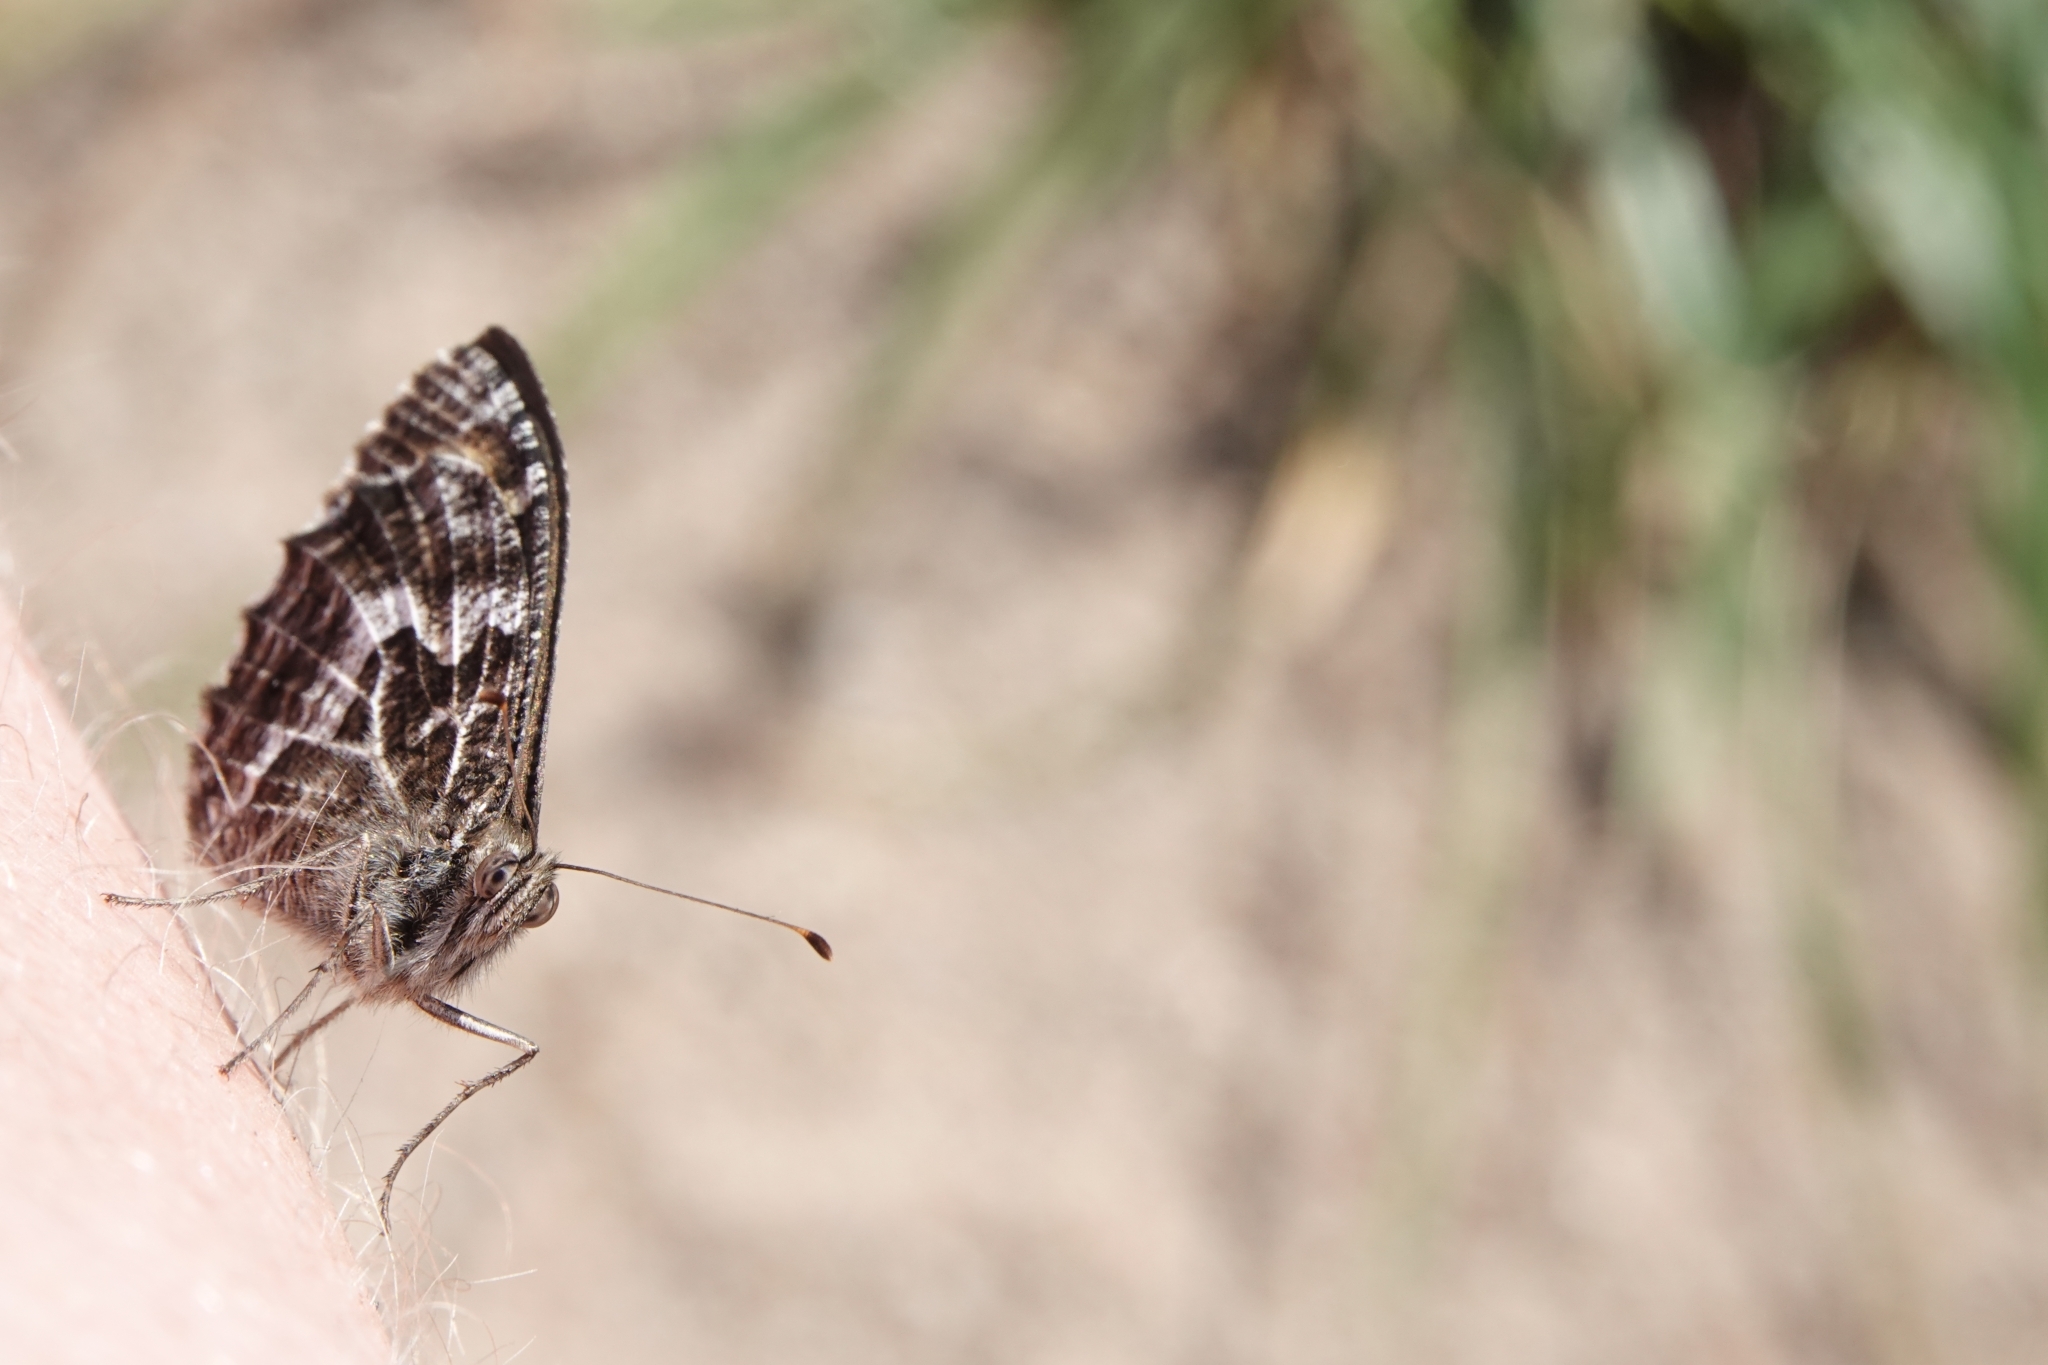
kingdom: Animalia
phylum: Arthropoda
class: Insecta
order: Lepidoptera
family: Nymphalidae
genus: Hipparchia
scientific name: Hipparchia semele
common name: Grayling
